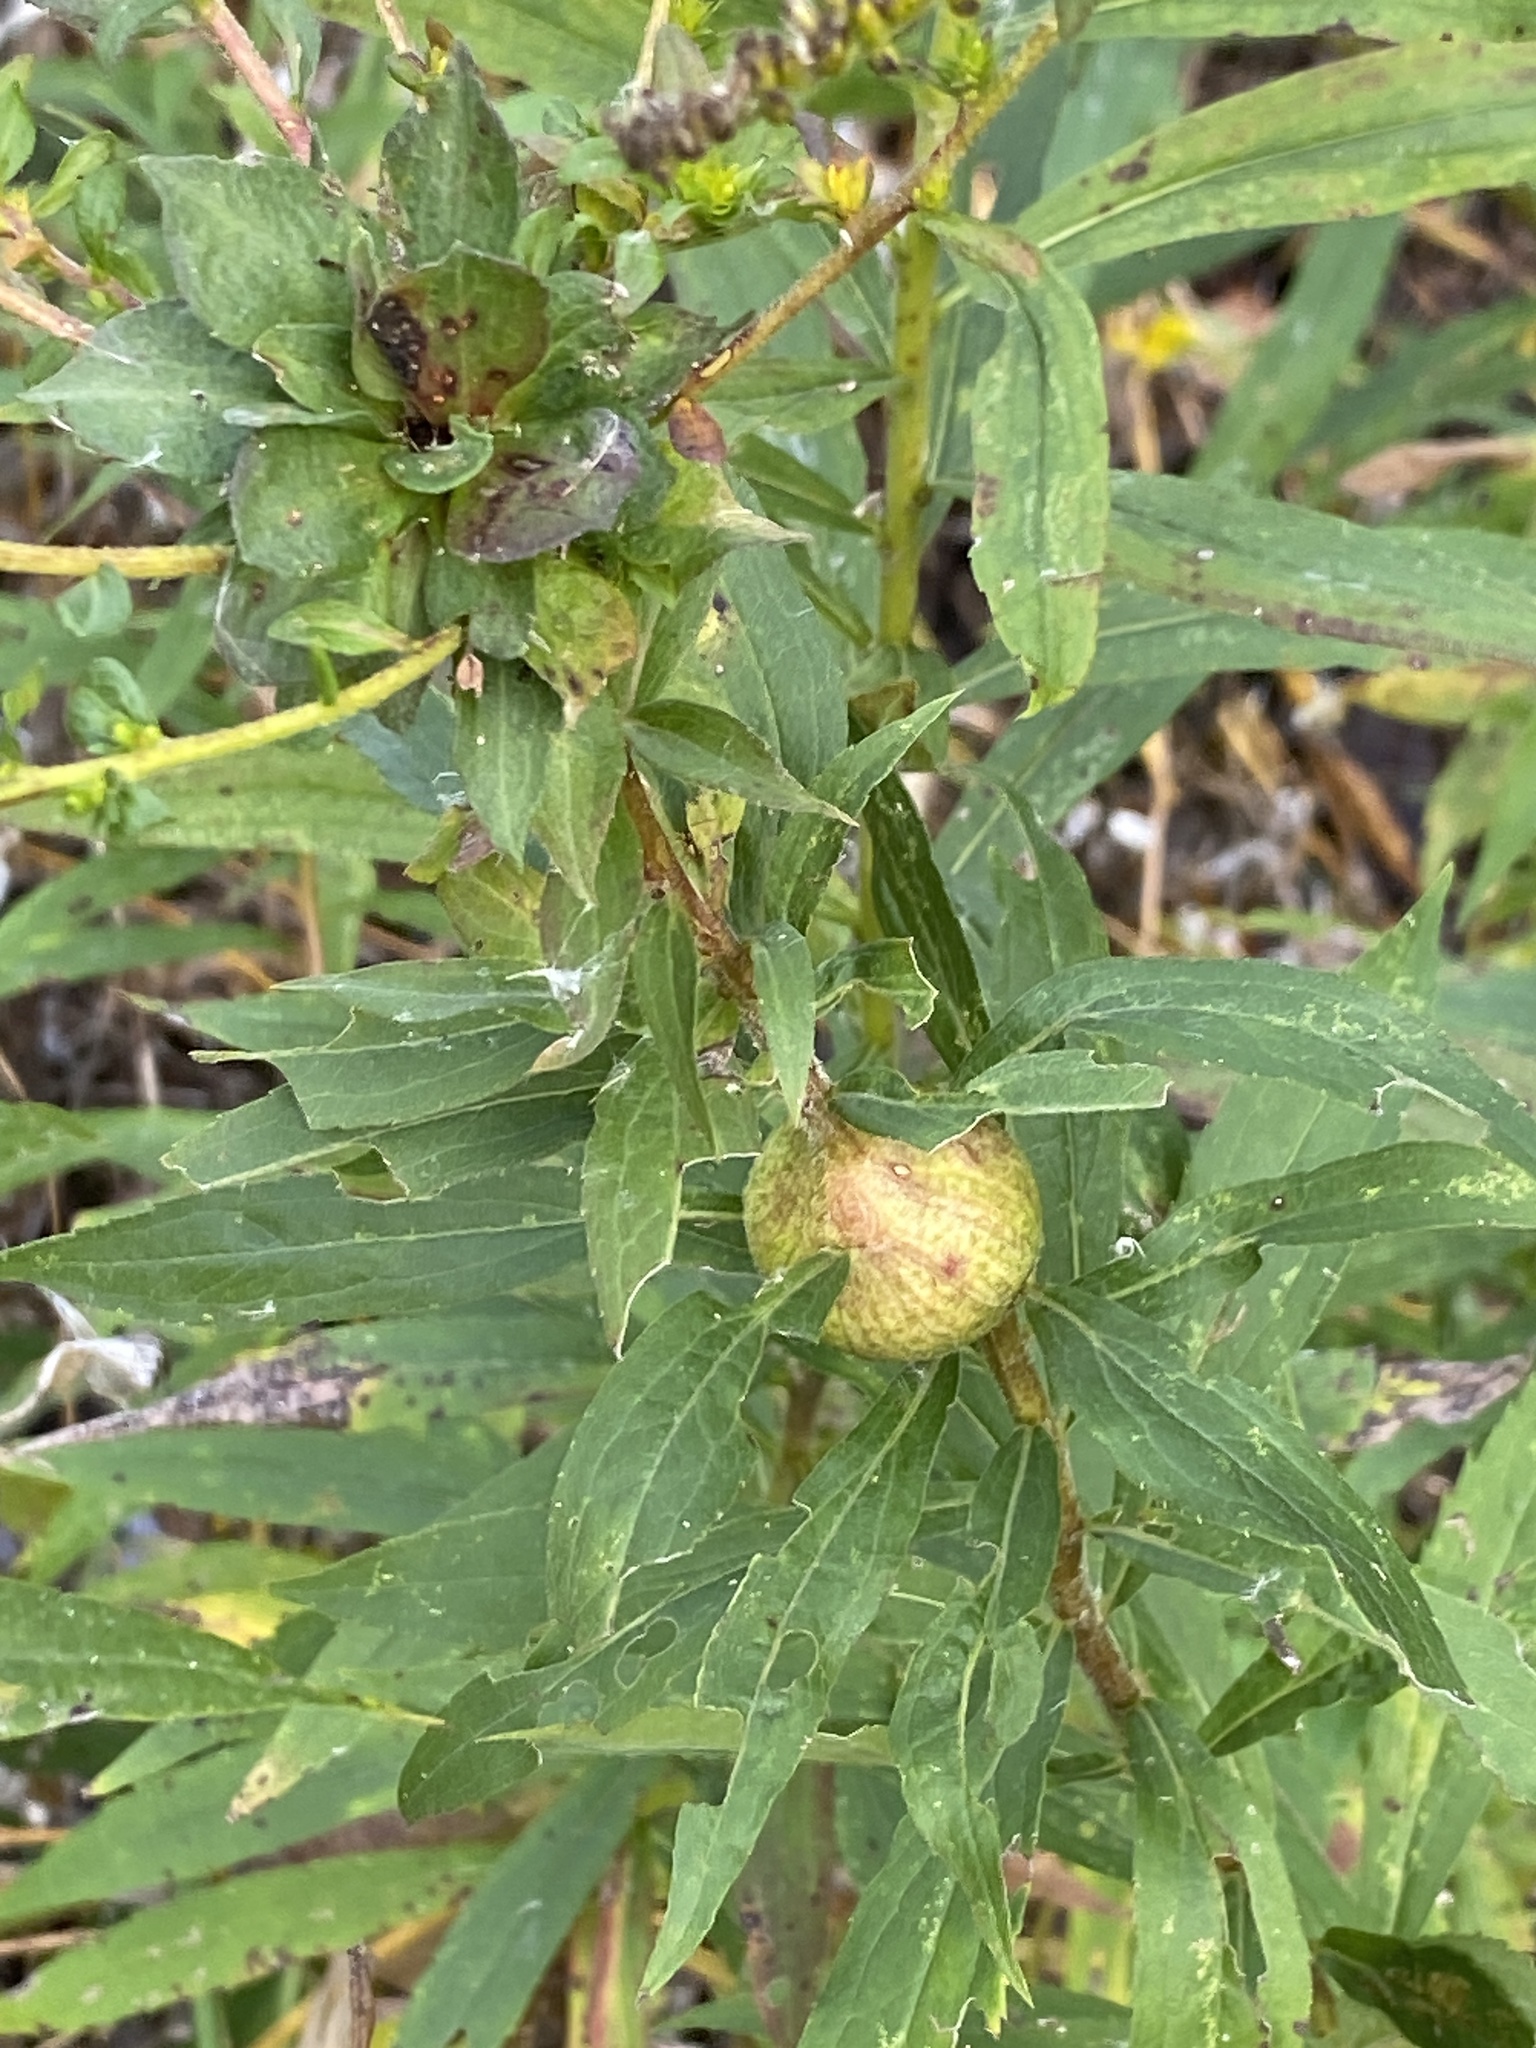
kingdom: Animalia
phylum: Arthropoda
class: Insecta
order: Diptera
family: Tephritidae
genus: Eurosta
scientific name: Eurosta solidaginis
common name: Goldenrod gall fly
